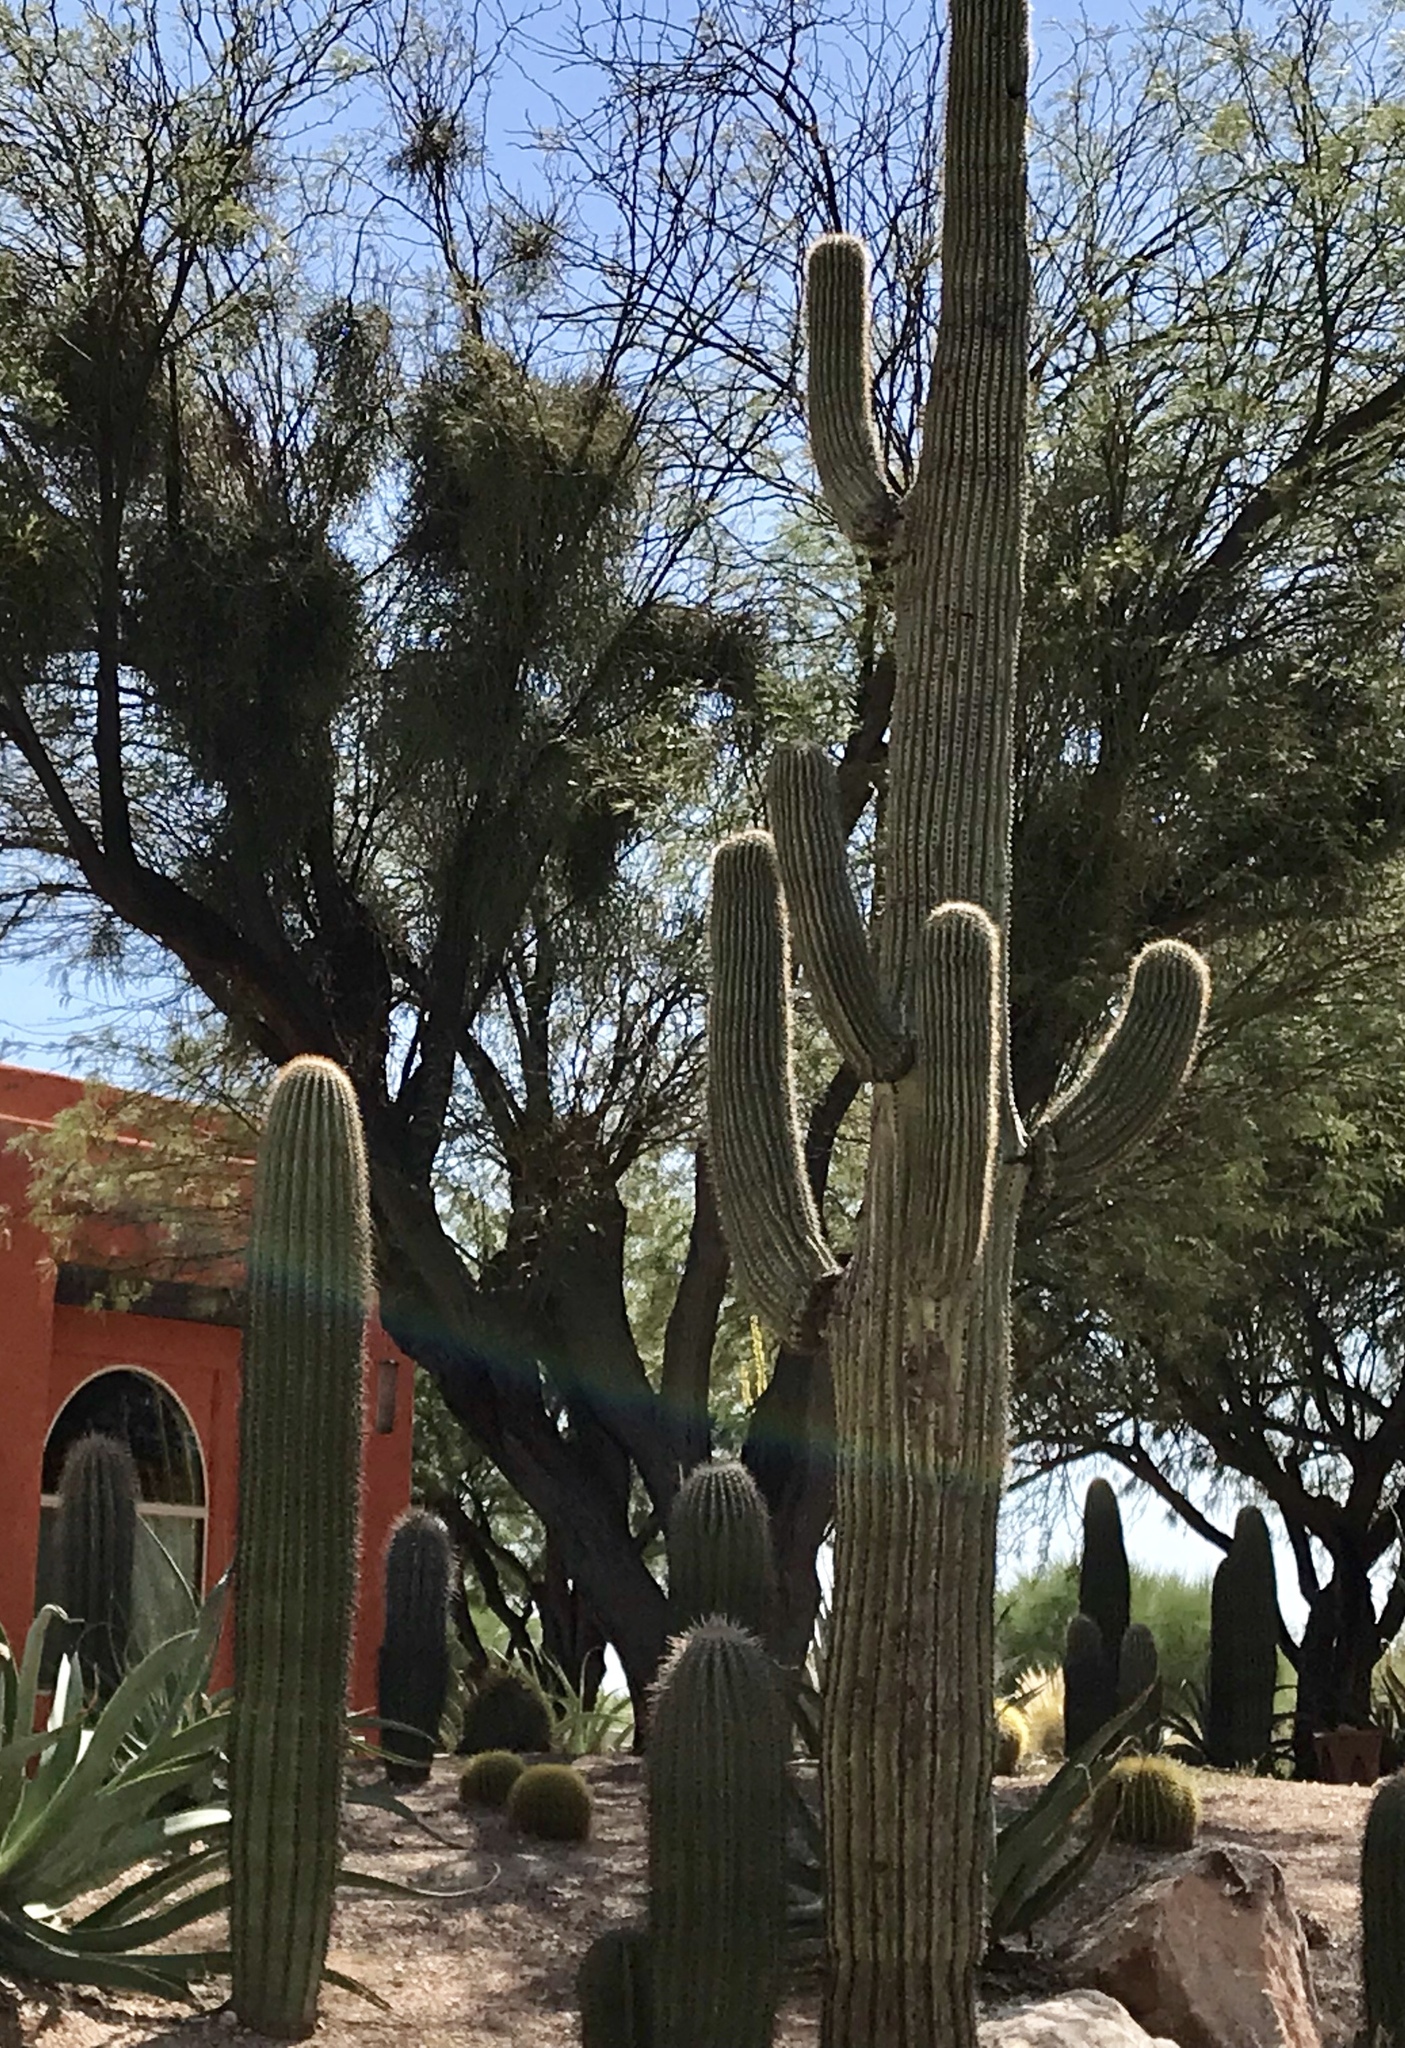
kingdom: Plantae
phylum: Tracheophyta
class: Magnoliopsida
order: Caryophyllales
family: Cactaceae
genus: Carnegiea
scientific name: Carnegiea gigantea
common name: Saguaro
